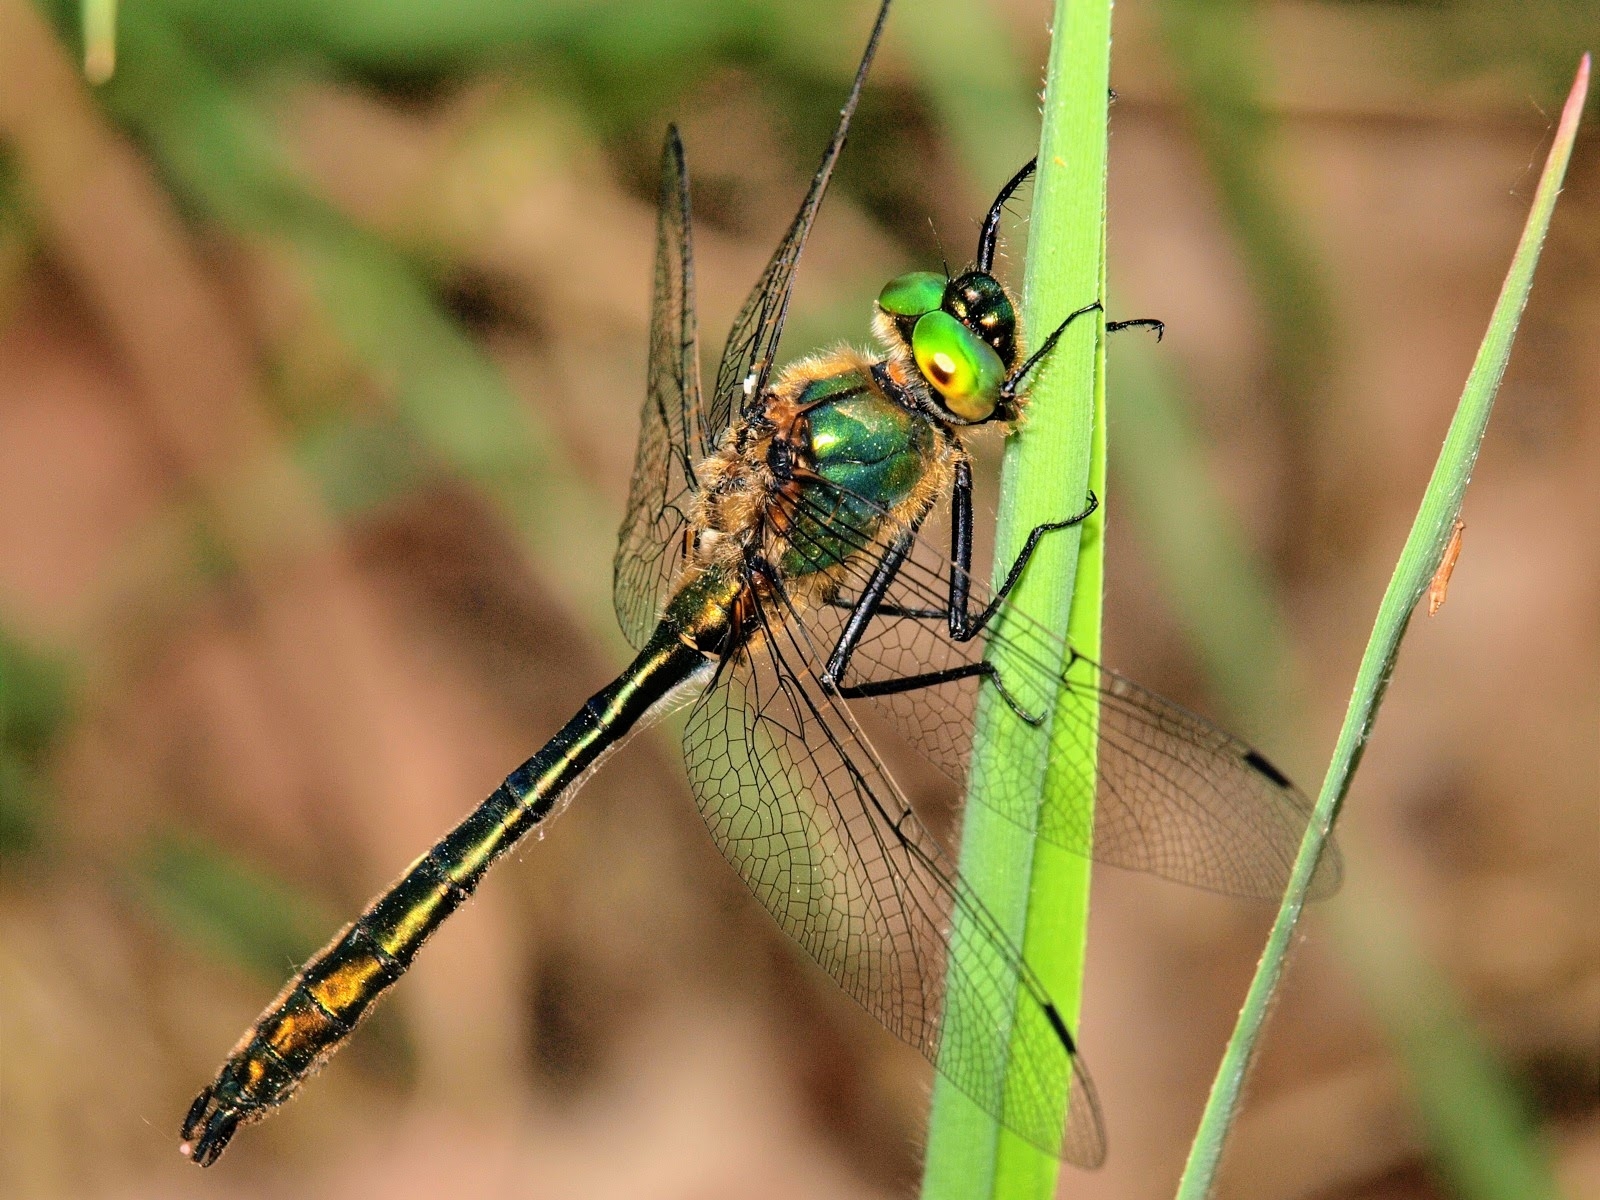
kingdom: Animalia
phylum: Arthropoda
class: Insecta
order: Odonata
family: Corduliidae
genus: Cordulia
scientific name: Cordulia aenea
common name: Downy emerald
